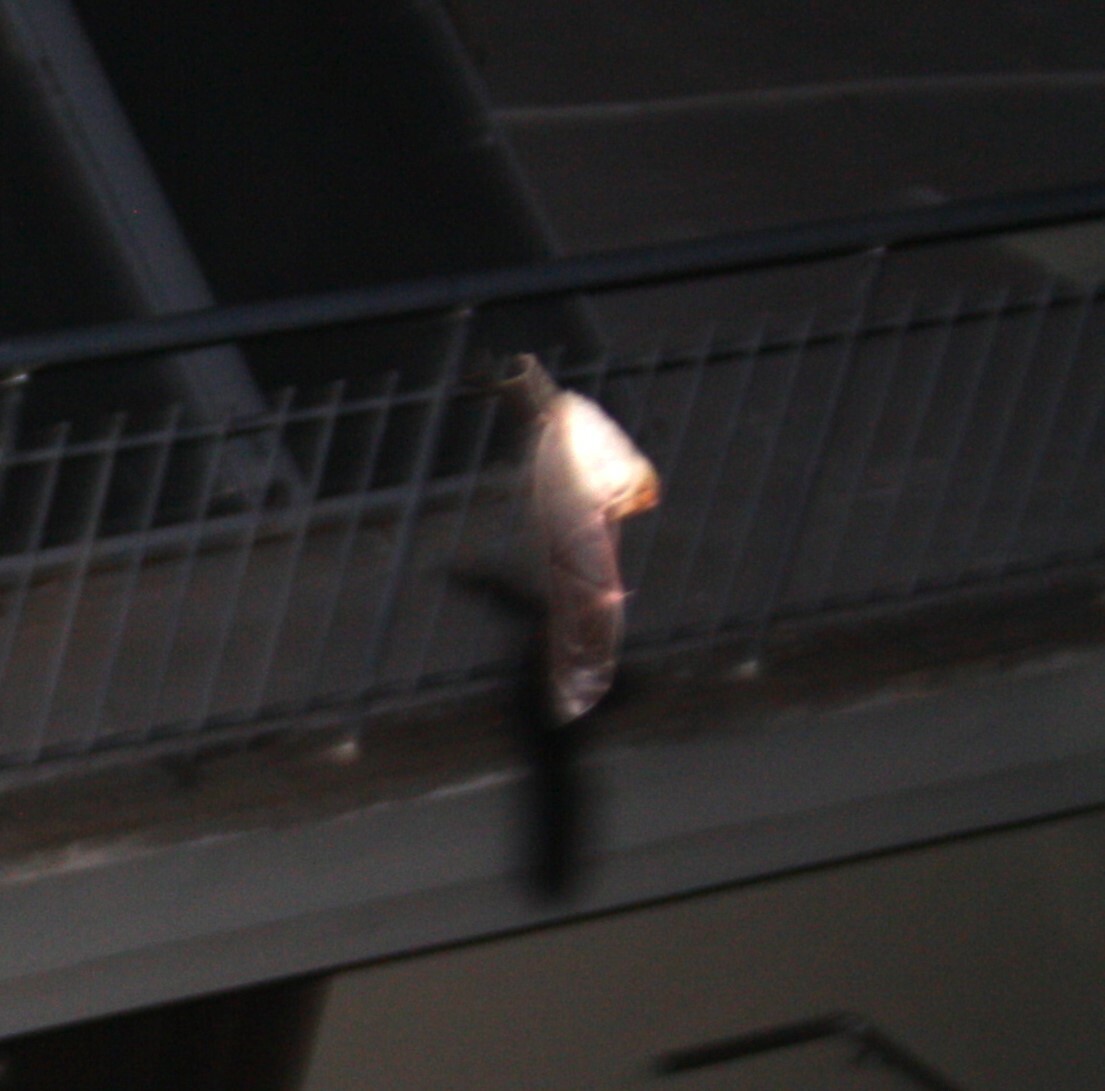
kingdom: Animalia
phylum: Chordata
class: Mammalia
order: Chiroptera
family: Pteropodidae
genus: Rousettus
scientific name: Rousettus aegyptiacus
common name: Egyptian rousette
